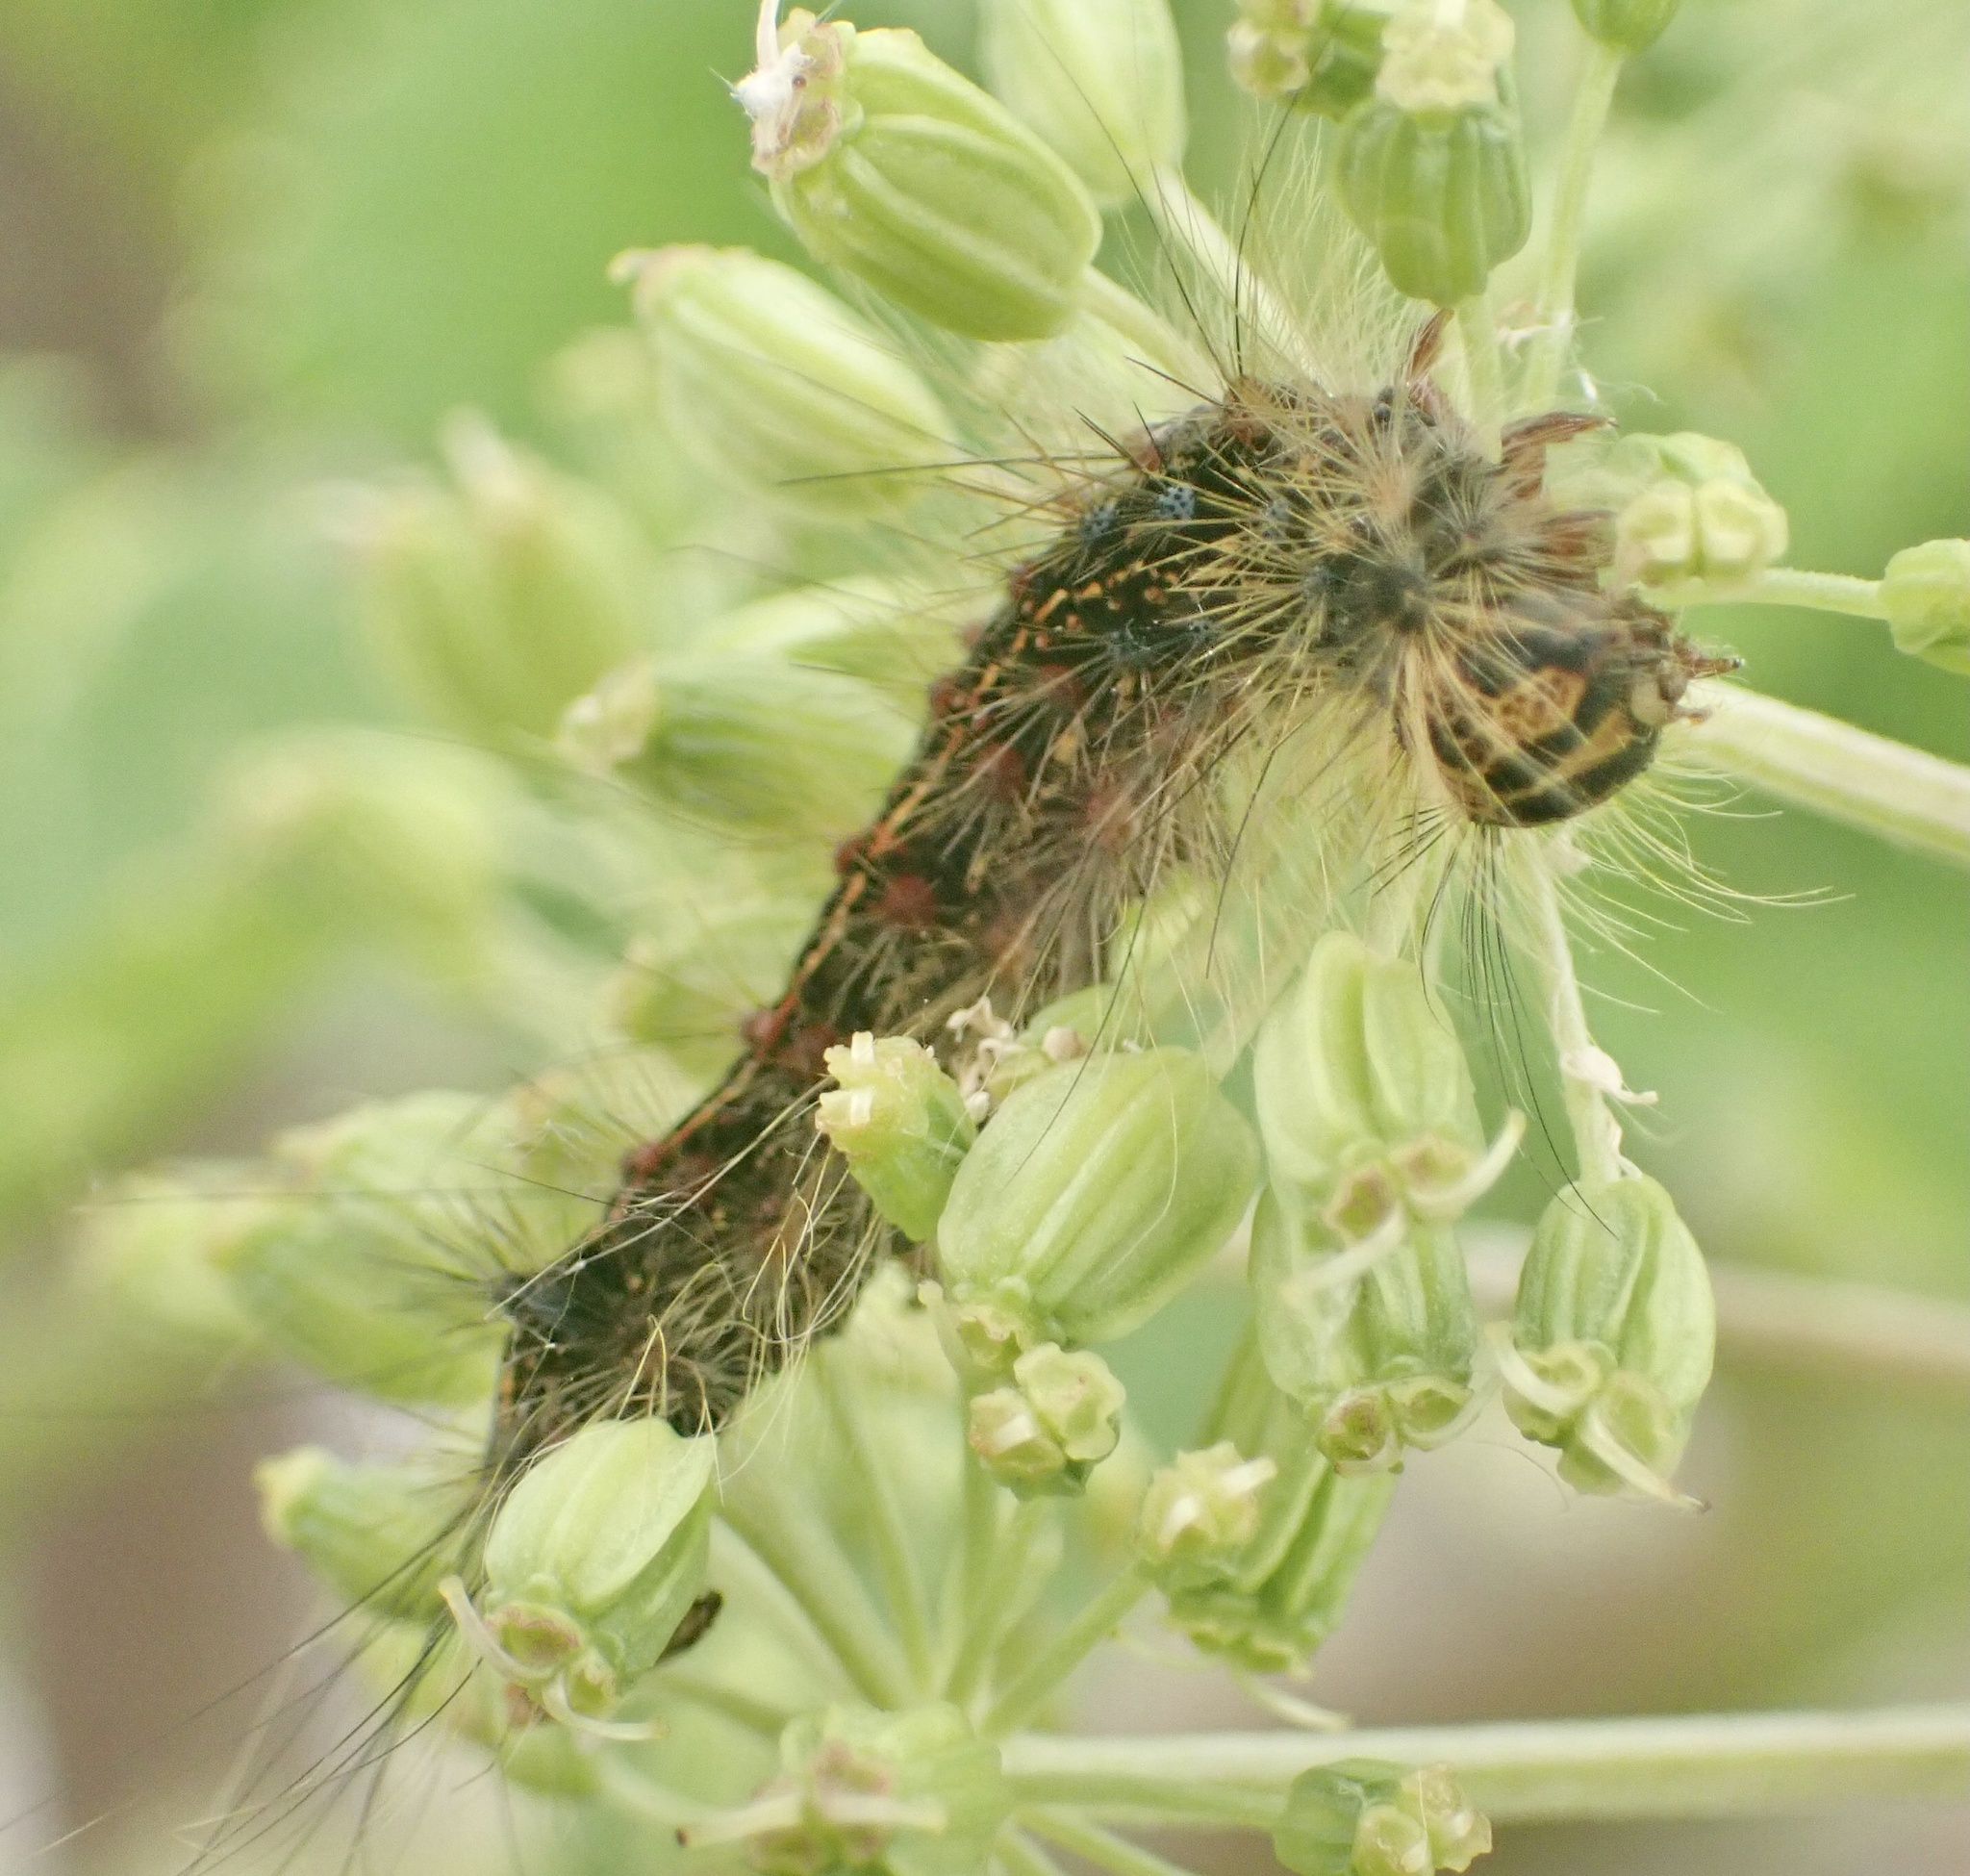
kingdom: Animalia
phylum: Arthropoda
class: Insecta
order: Lepidoptera
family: Erebidae
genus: Lymantria
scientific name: Lymantria dispar
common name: Gypsy moth
